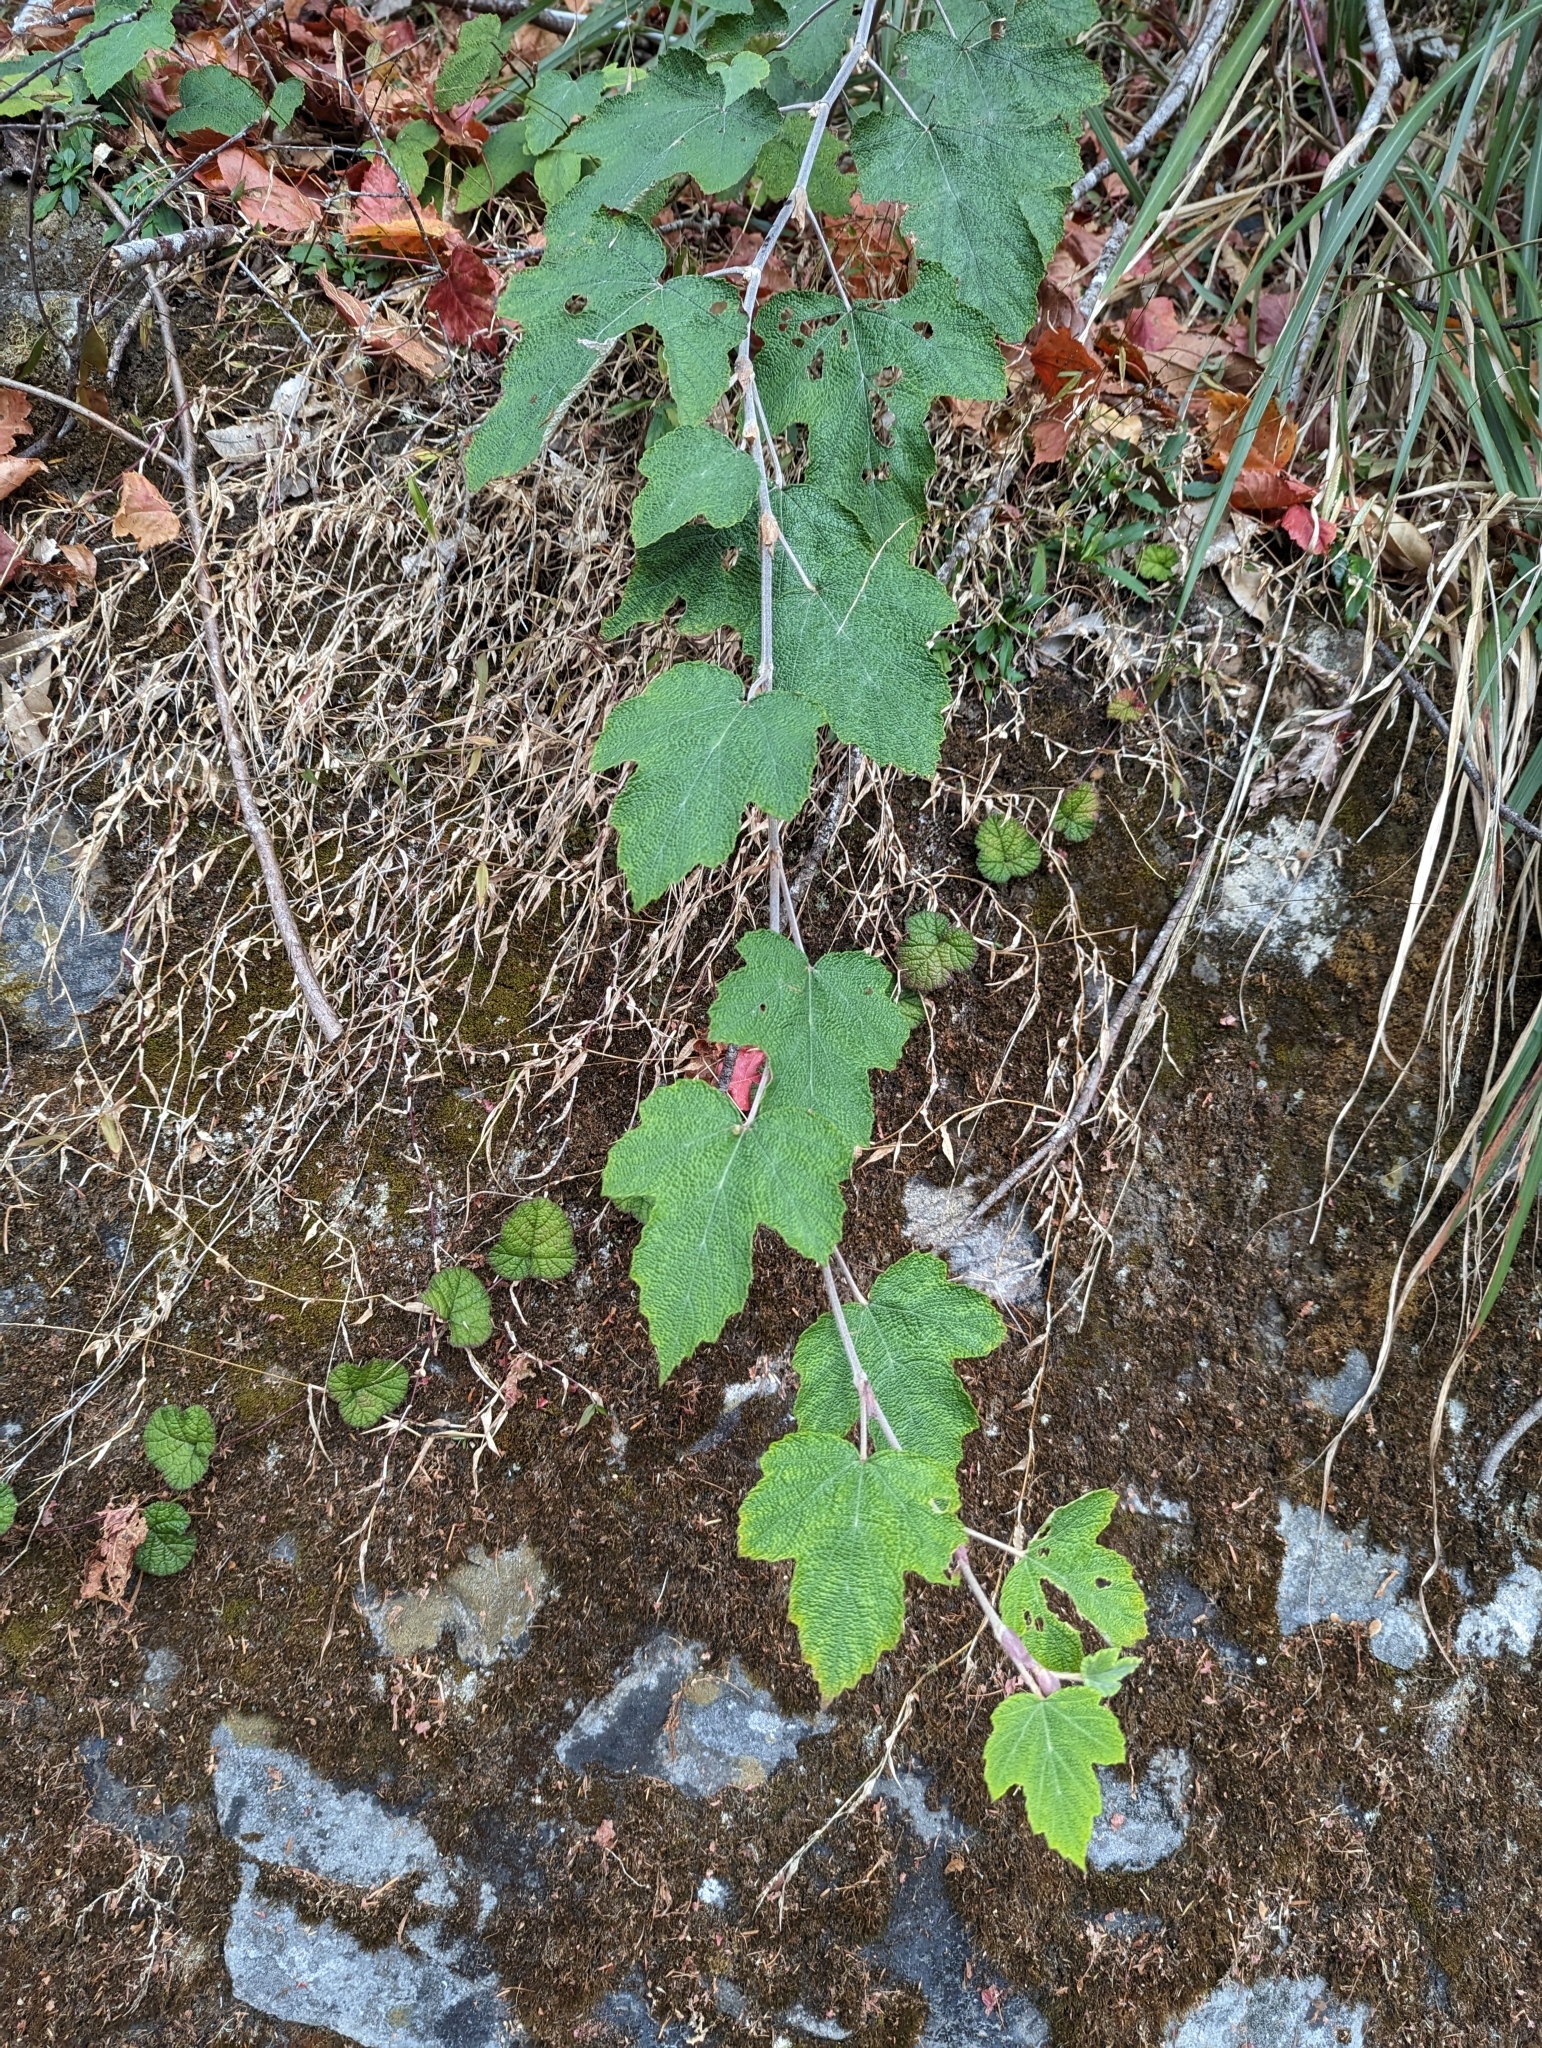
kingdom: Plantae
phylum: Tracheophyta
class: Magnoliopsida
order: Rosales
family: Rosaceae
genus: Rubus
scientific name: Rubus formosensis
